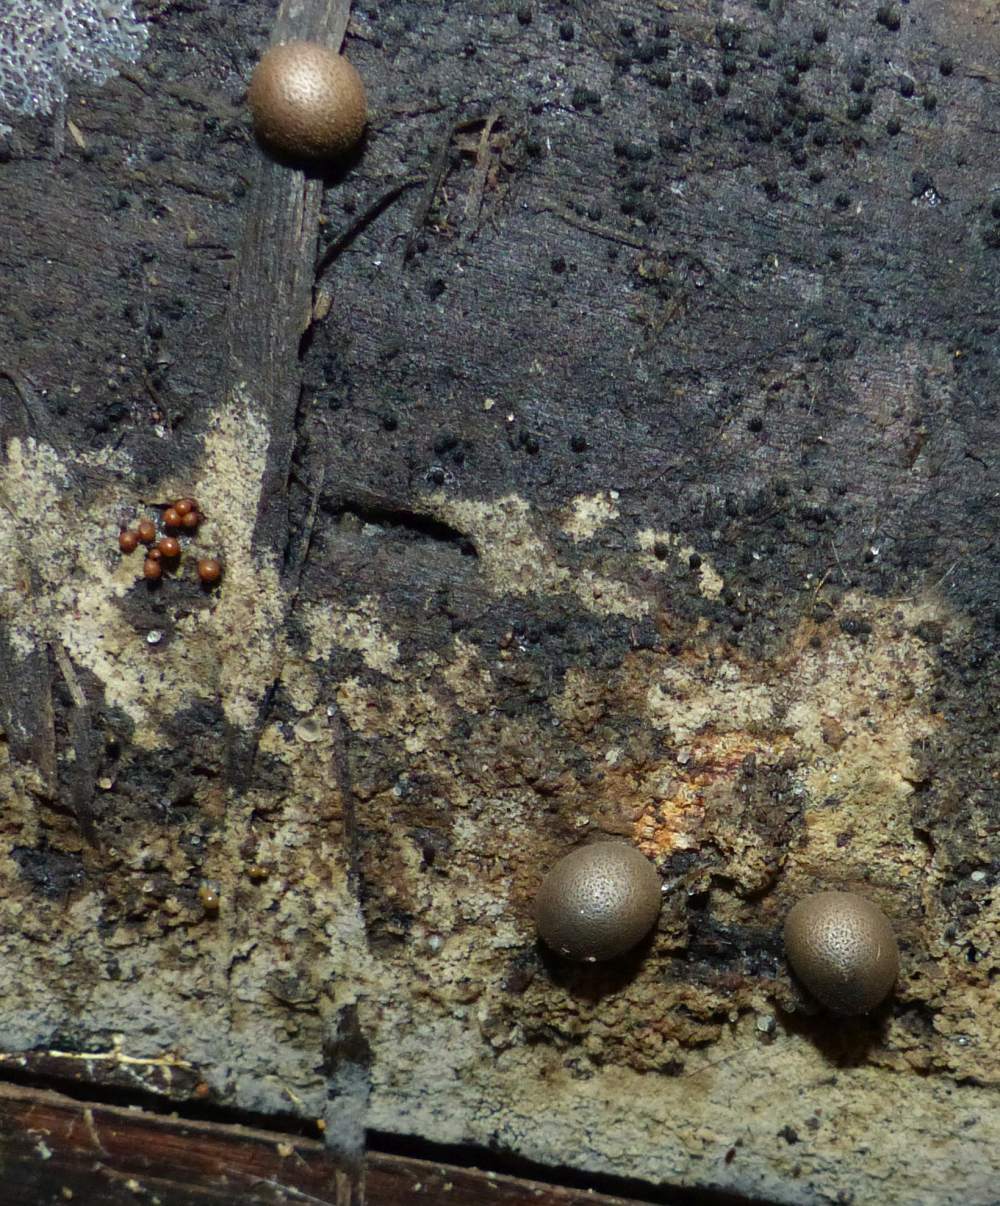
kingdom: Protozoa
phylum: Mycetozoa
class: Myxomycetes
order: Cribrariales
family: Tubiferaceae
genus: Lycogala
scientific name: Lycogala epidendrum
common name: Wolf's milk
